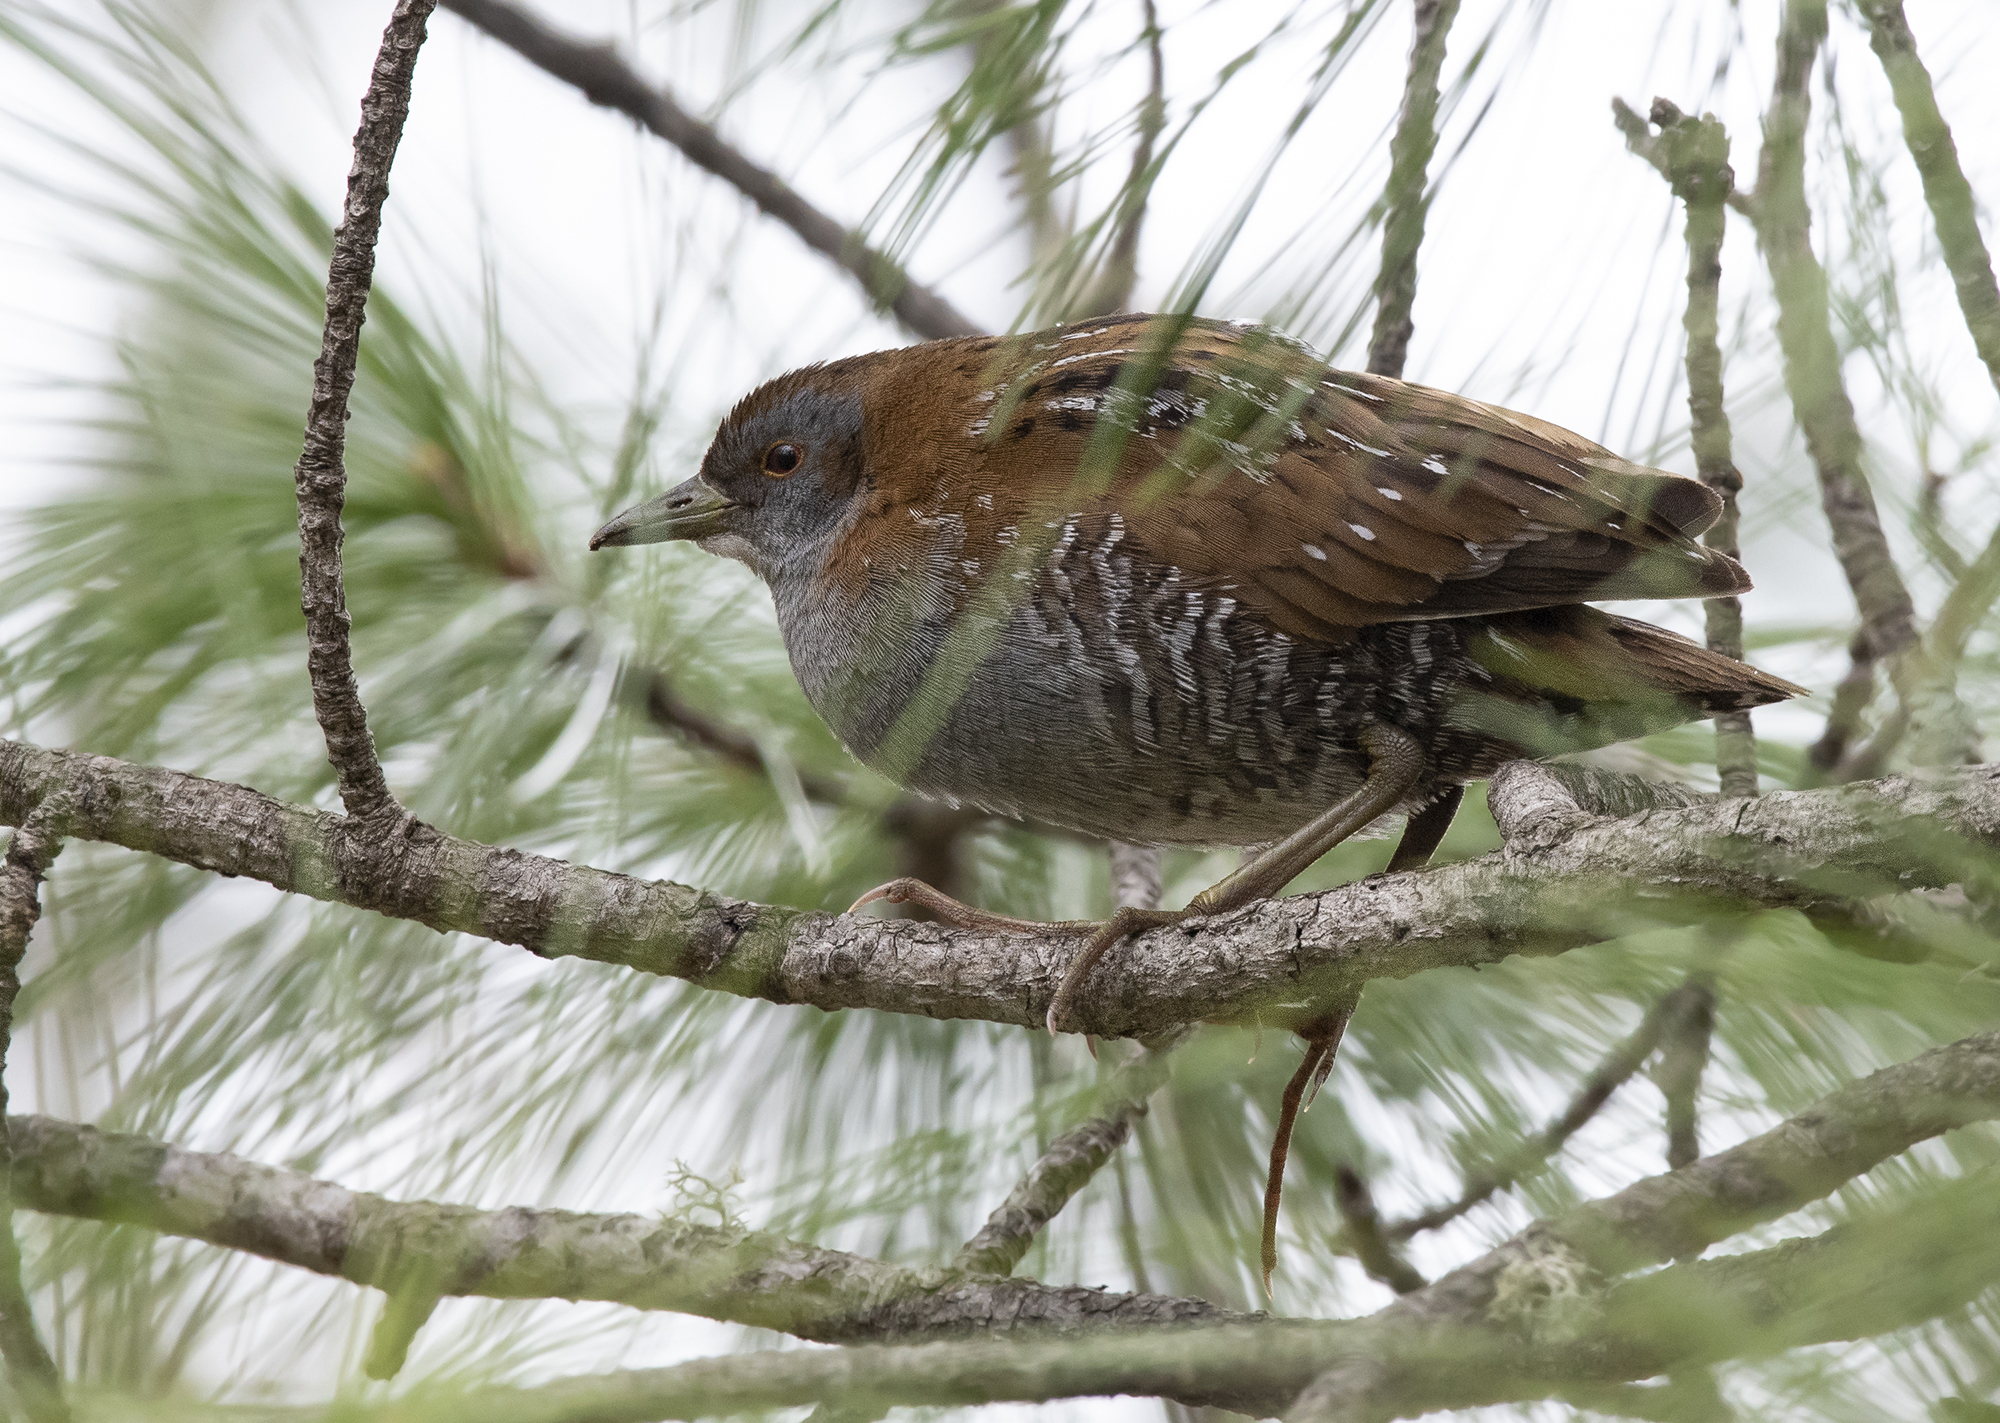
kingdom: Animalia
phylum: Chordata
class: Aves
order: Gruiformes
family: Rallidae
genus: Porzana
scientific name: Porzana pusilla
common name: Baillon's crake
